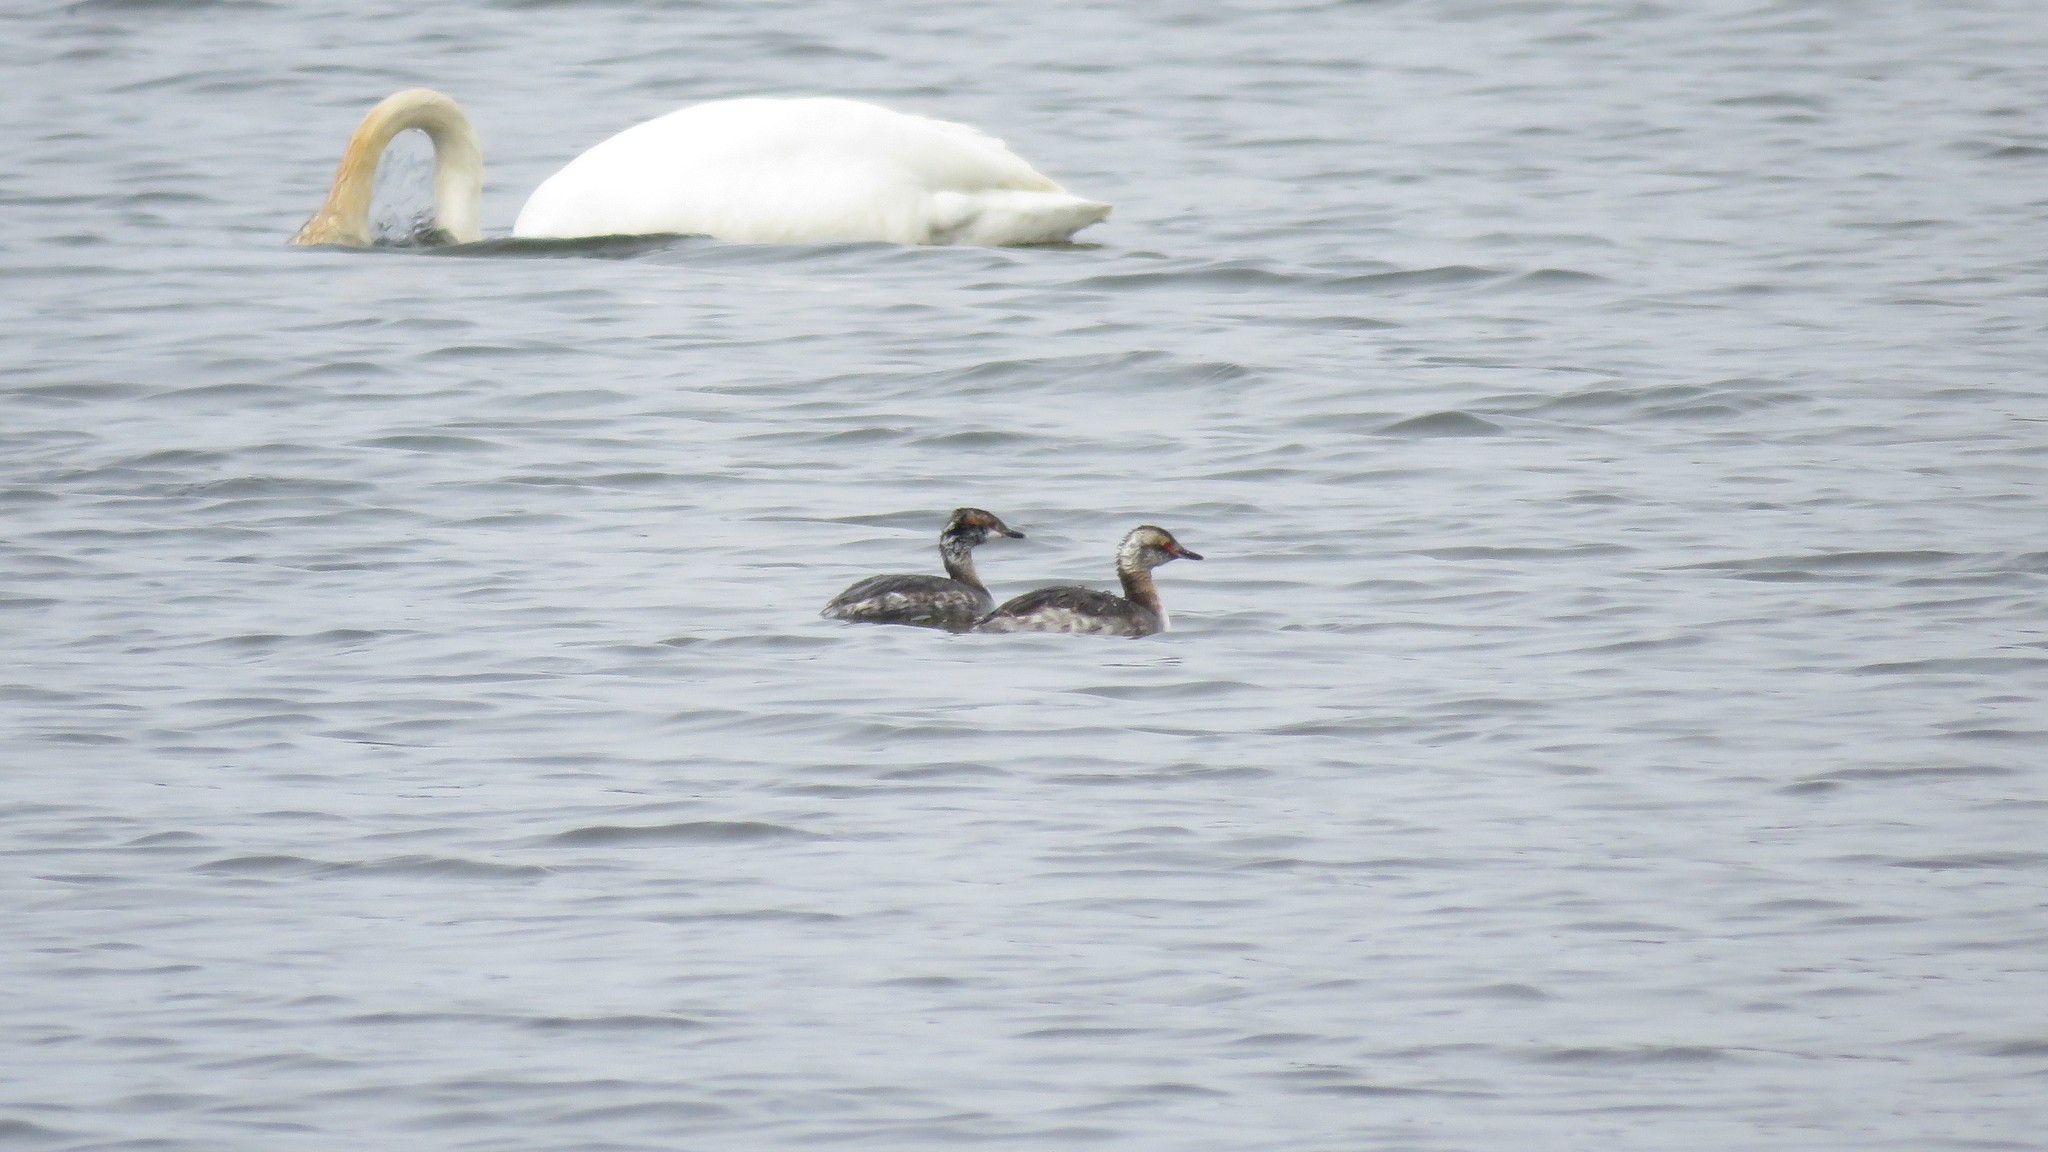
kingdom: Animalia
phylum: Chordata
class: Aves
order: Podicipediformes
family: Podicipedidae
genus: Podiceps
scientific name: Podiceps auritus
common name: Horned grebe
